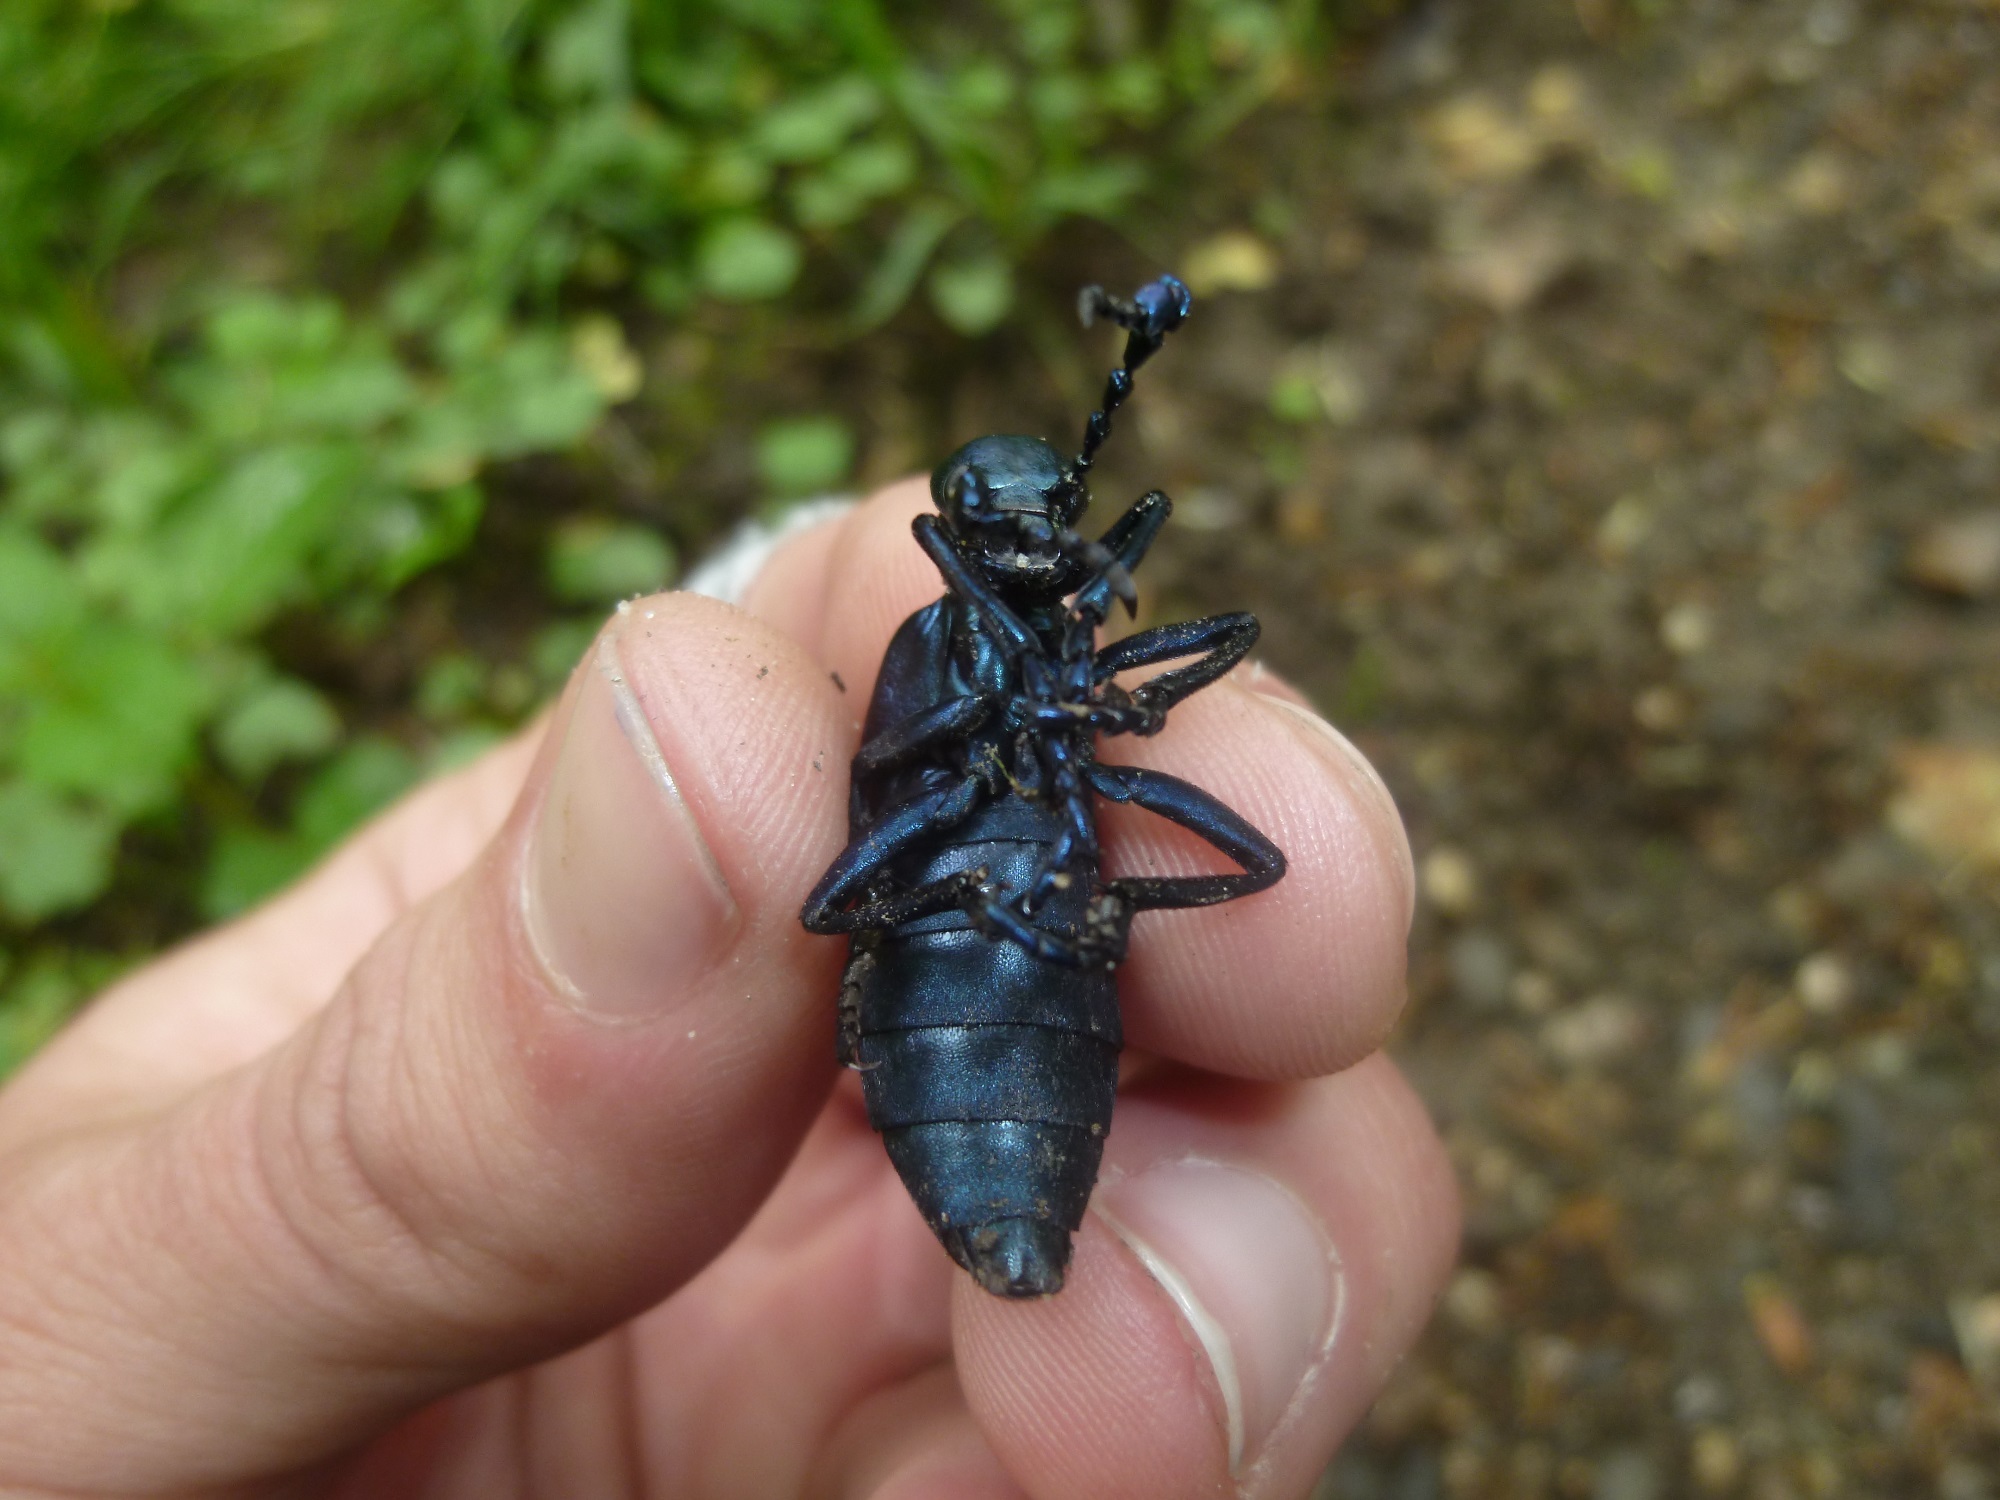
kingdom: Animalia
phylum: Arthropoda
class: Insecta
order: Coleoptera
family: Meloidae
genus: Meloe
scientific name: Meloe violaceus
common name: Violet oil-beetle
